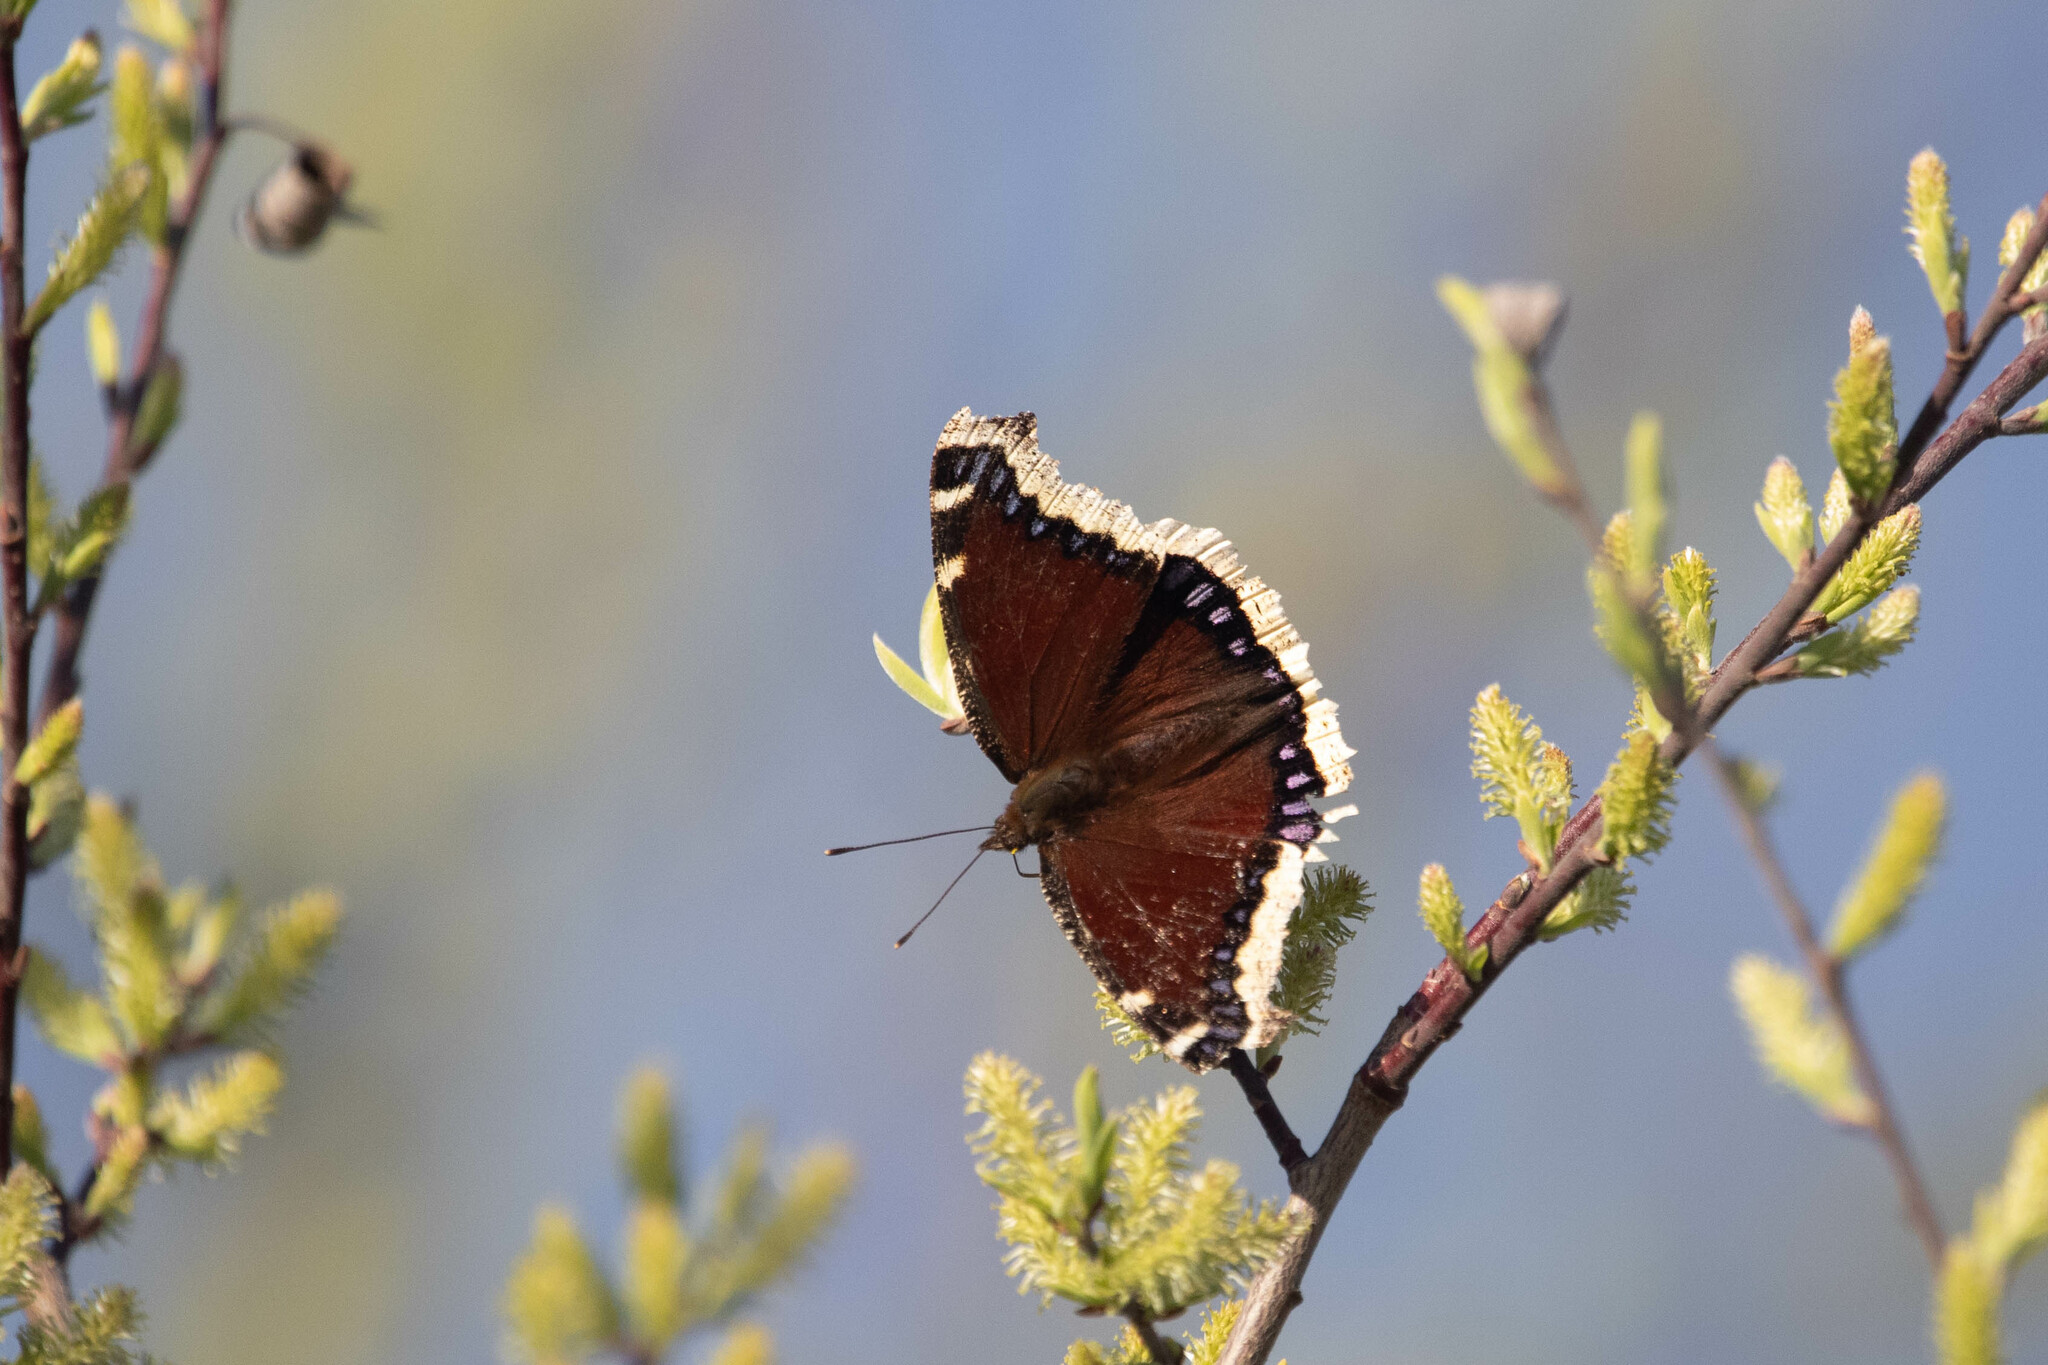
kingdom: Animalia
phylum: Arthropoda
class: Insecta
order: Lepidoptera
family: Nymphalidae
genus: Nymphalis
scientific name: Nymphalis antiopa
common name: Camberwell beauty
